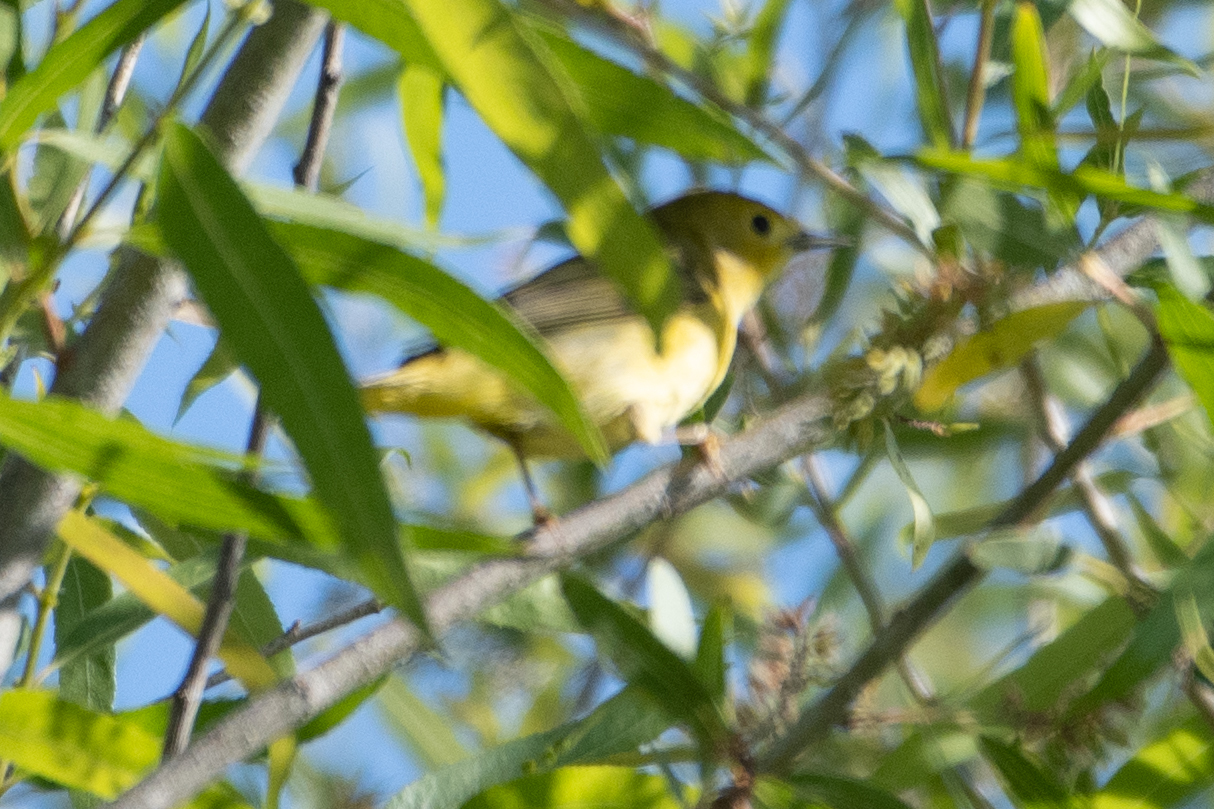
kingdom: Animalia
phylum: Chordata
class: Aves
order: Passeriformes
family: Parulidae
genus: Setophaga
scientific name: Setophaga petechia
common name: Yellow warbler
